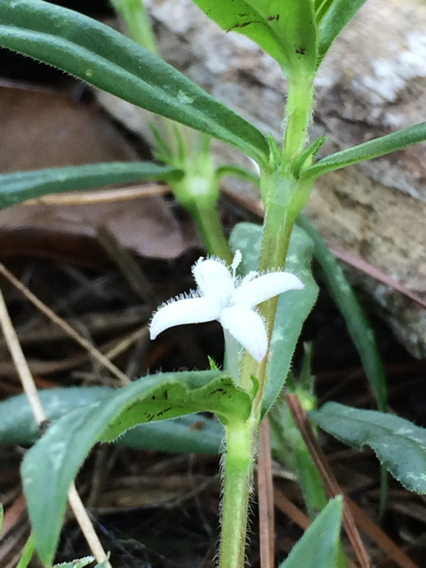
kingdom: Plantae
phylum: Tracheophyta
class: Magnoliopsida
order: Gentianales
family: Rubiaceae
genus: Diodia
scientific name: Diodia virginiana
